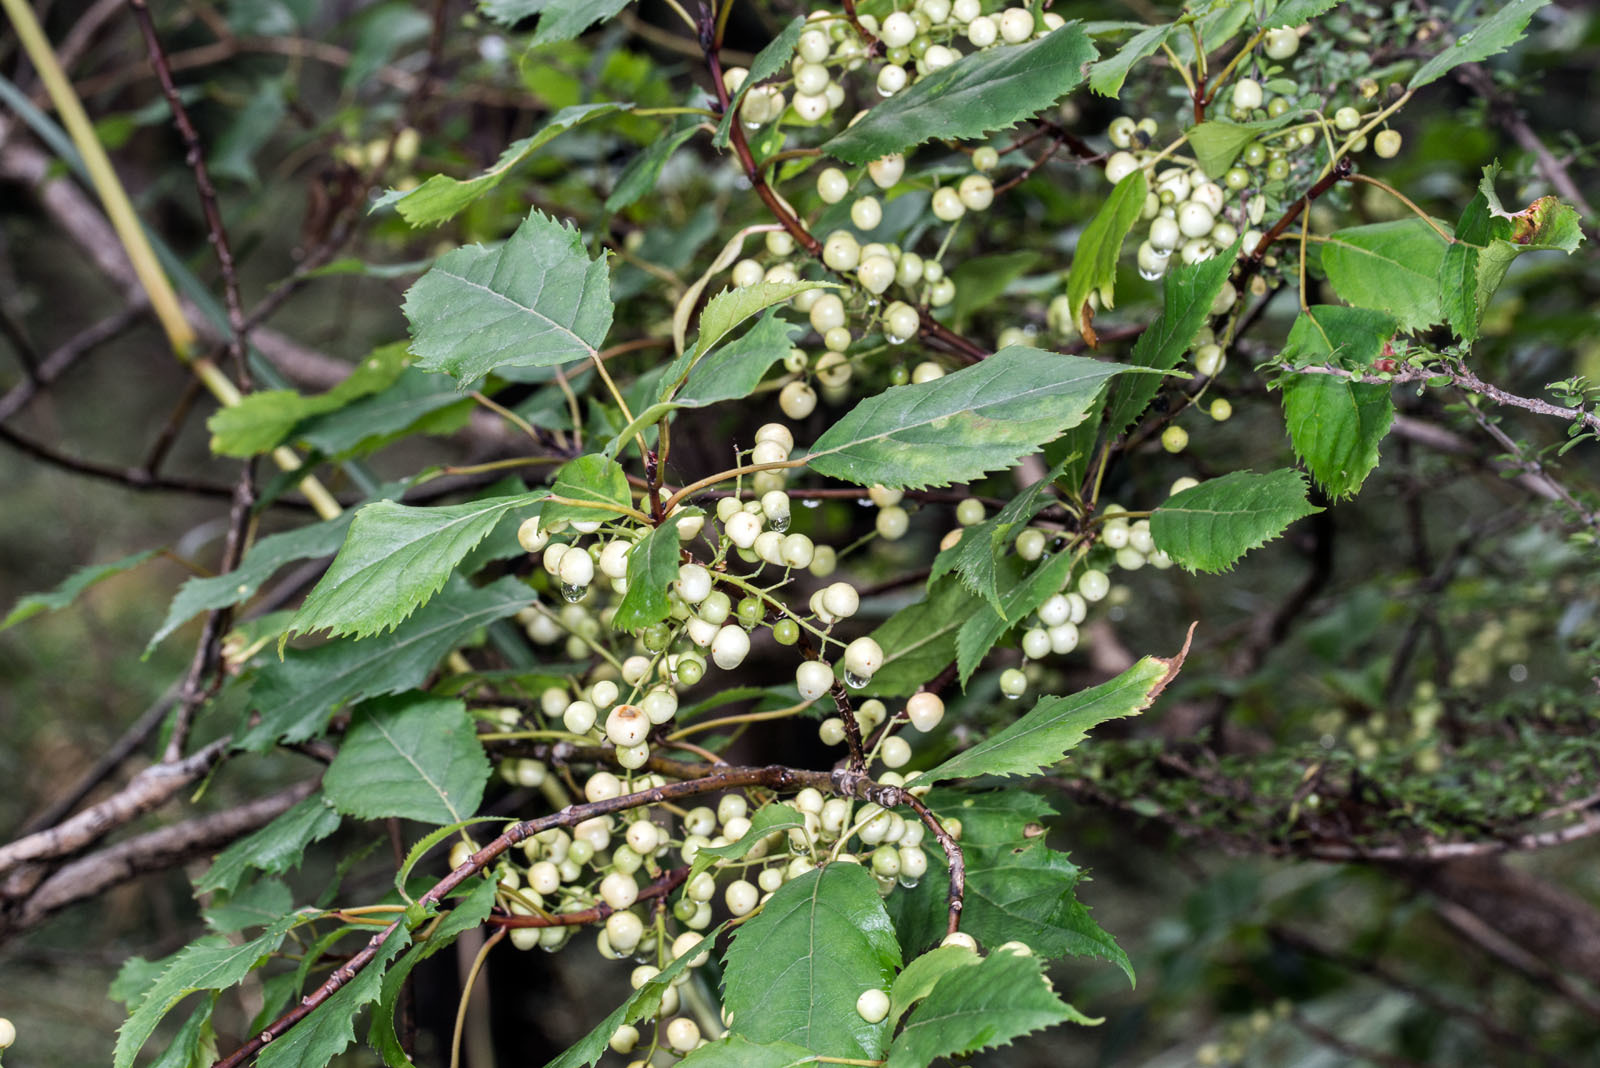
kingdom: Plantae
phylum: Tracheophyta
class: Magnoliopsida
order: Oxalidales
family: Elaeocarpaceae
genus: Aristotelia
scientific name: Aristotelia serrata
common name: New zealand wineberry
